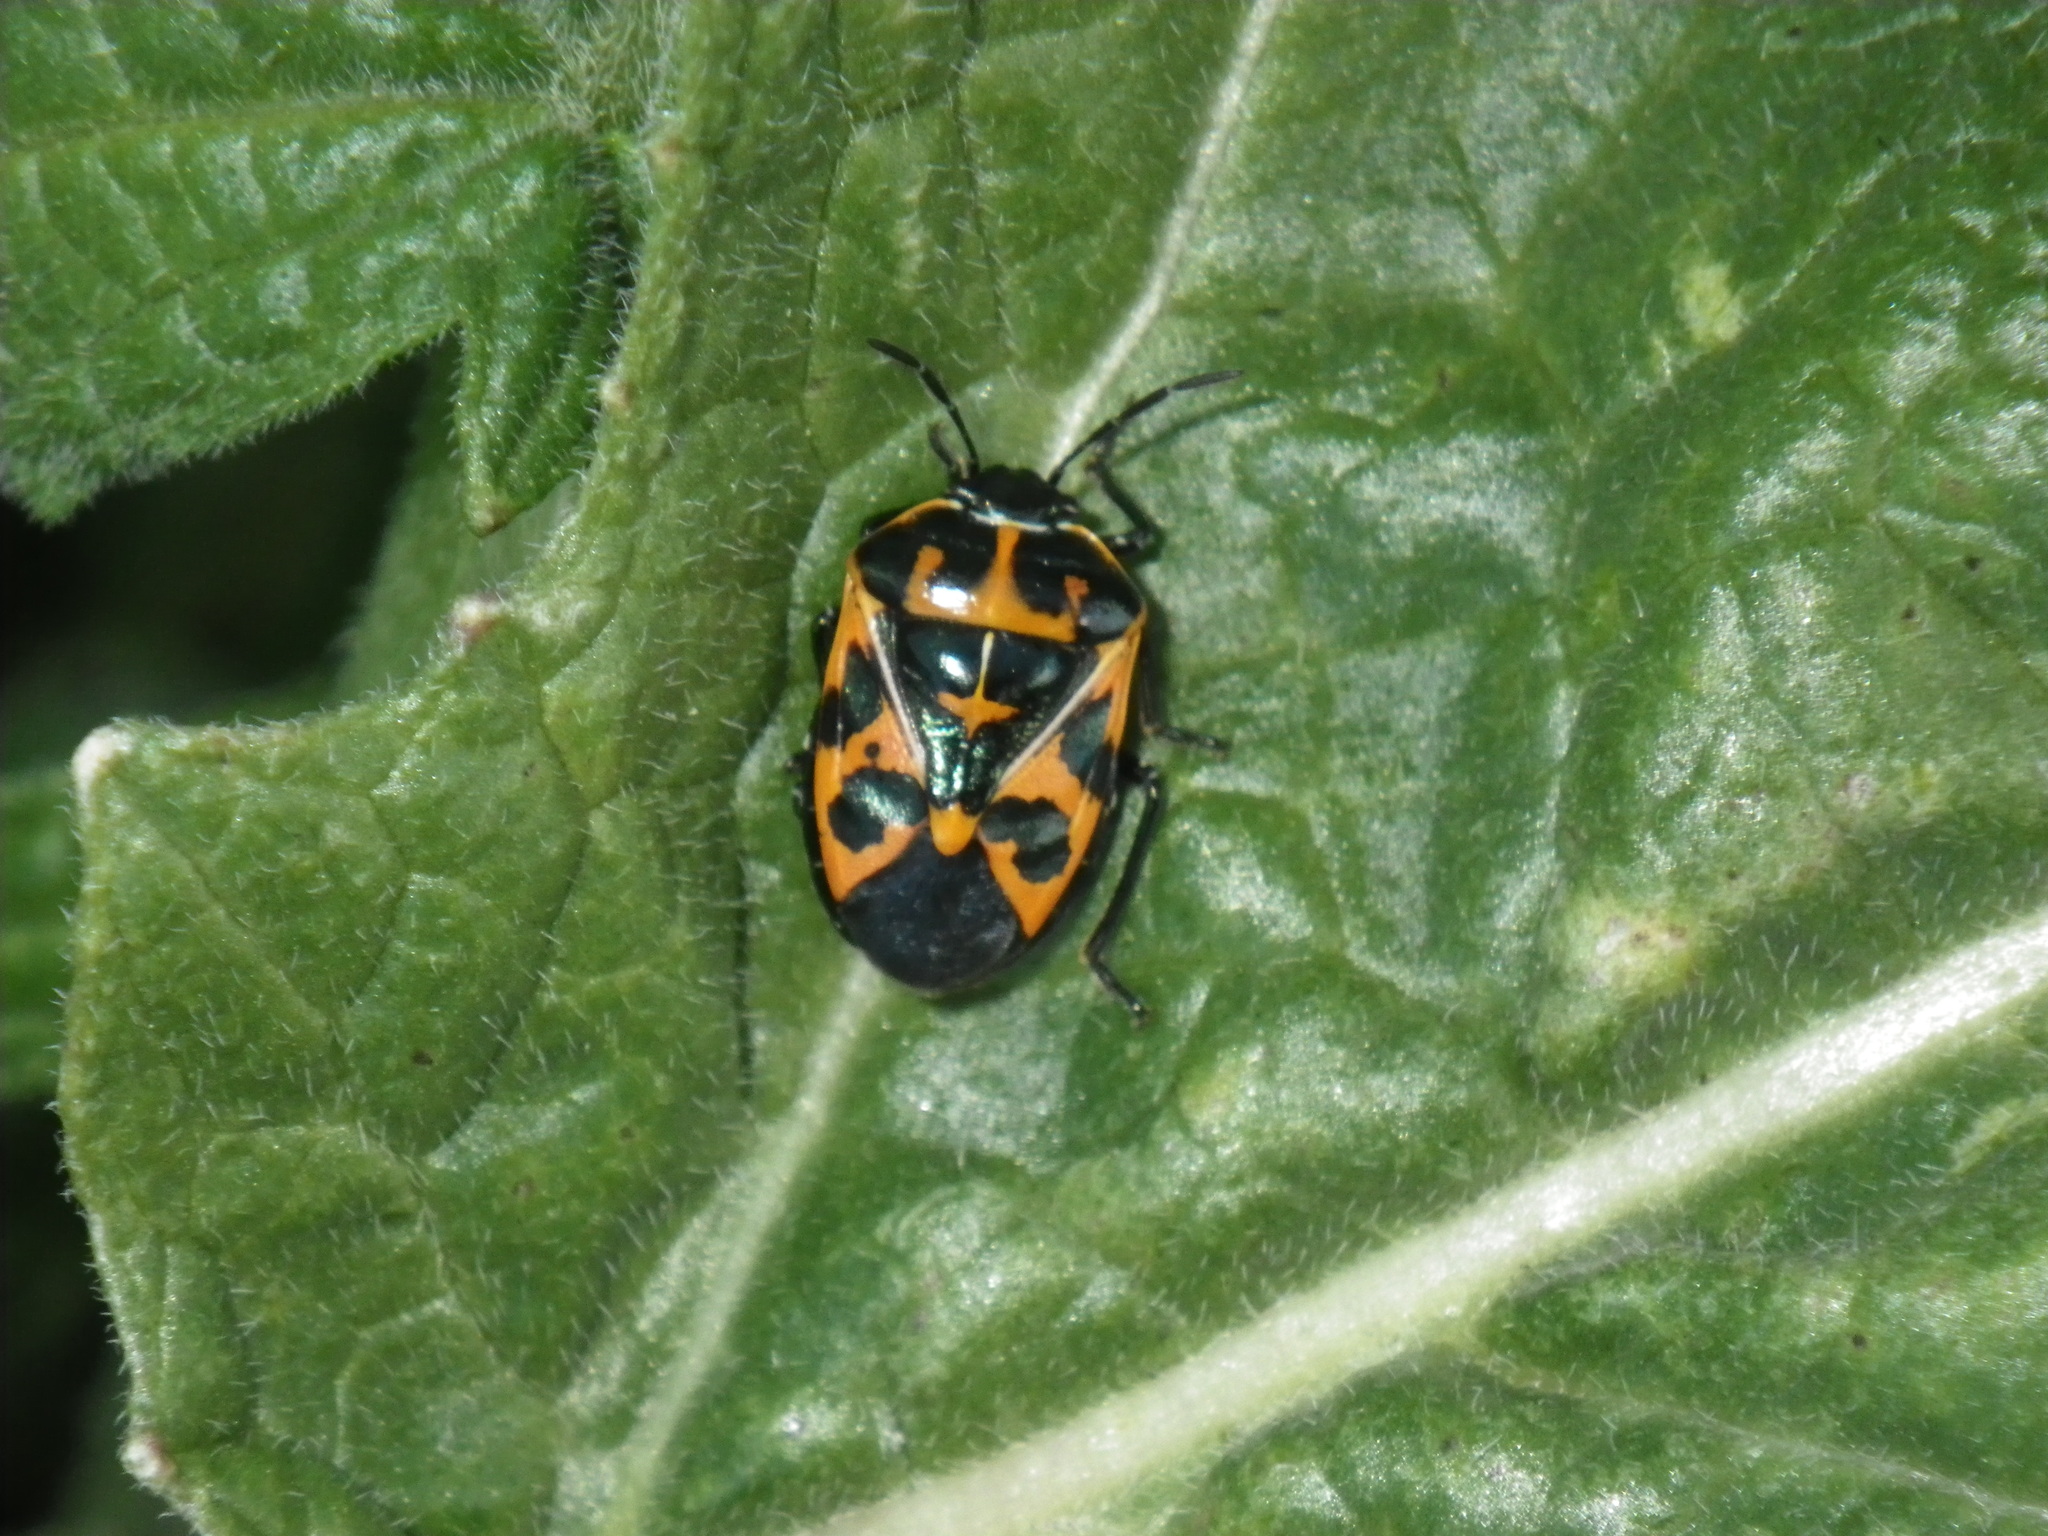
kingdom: Animalia
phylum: Arthropoda
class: Insecta
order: Hemiptera
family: Pentatomidae
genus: Murgantia
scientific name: Murgantia histrionica
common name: Harlequin bug
